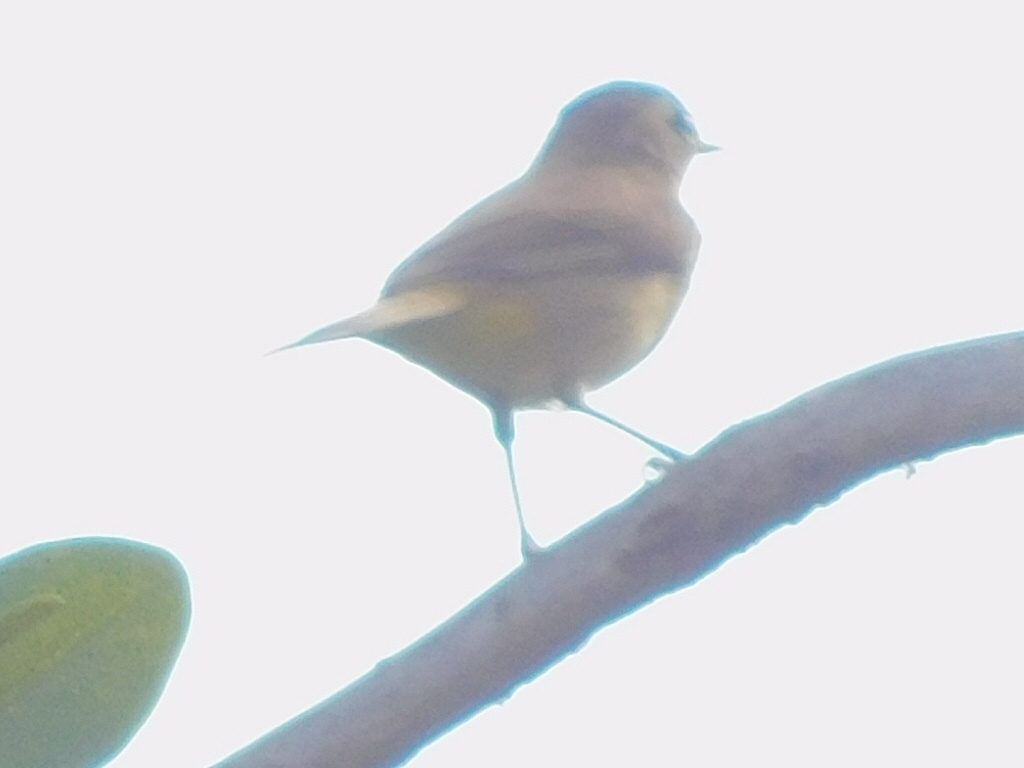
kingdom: Animalia
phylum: Chordata
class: Aves
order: Passeriformes
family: Parulidae
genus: Setophaga
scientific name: Setophaga palmarum
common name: Palm warbler
